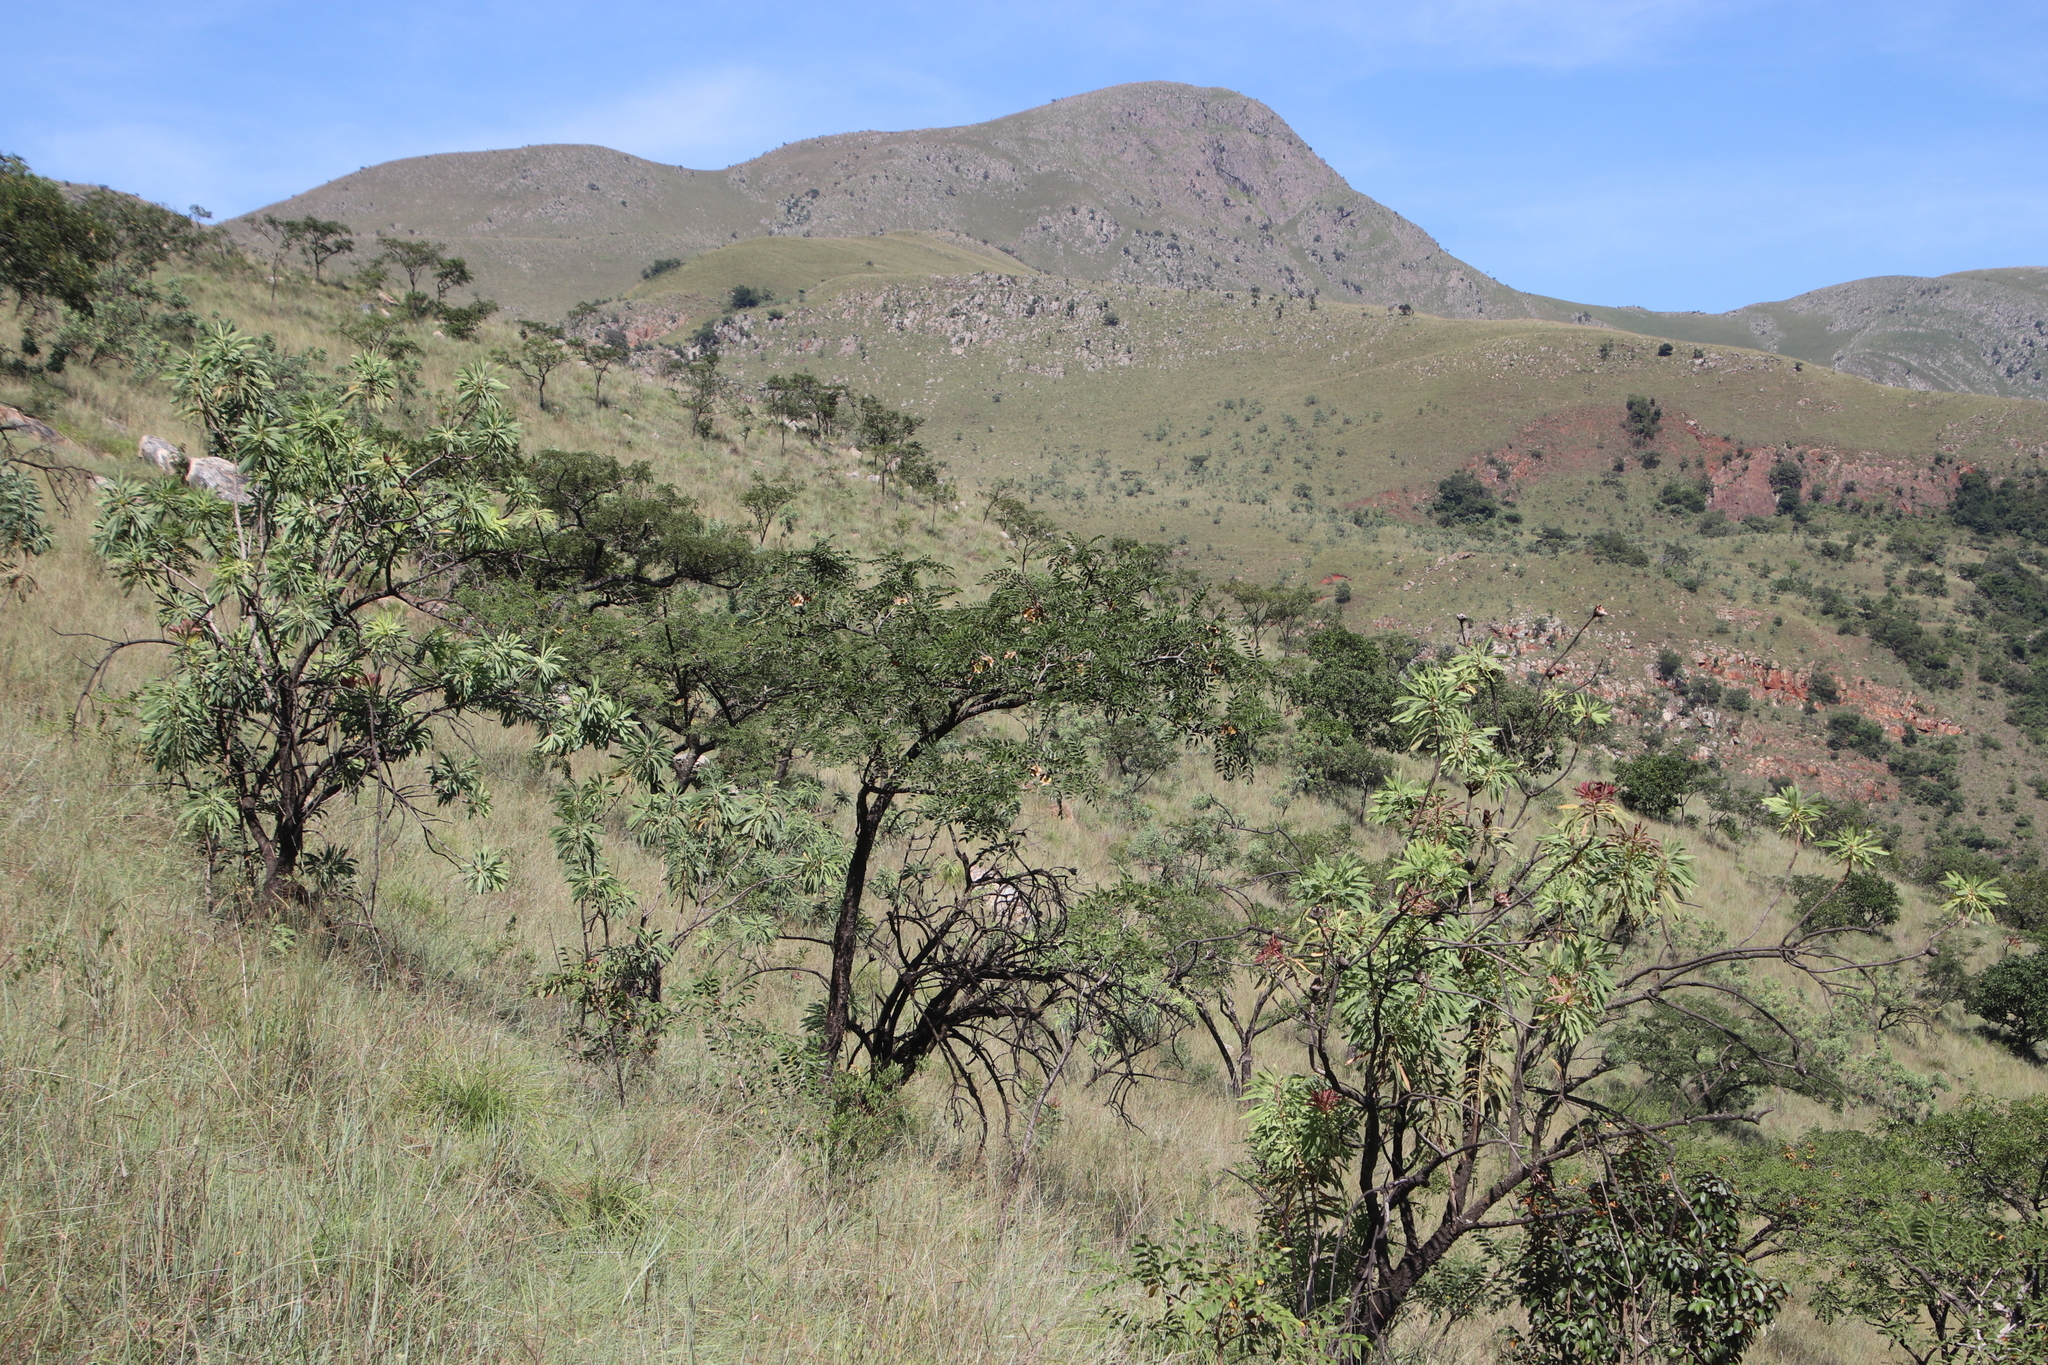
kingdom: Plantae
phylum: Tracheophyta
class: Magnoliopsida
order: Fabales
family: Fabaceae
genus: Pterocarpus
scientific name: Pterocarpus angolensis
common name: Bloodwood tree
